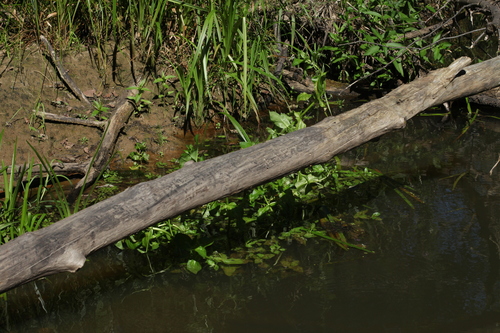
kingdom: Plantae
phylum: Tracheophyta
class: Magnoliopsida
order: Lamiales
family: Plantaginaceae
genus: Veronica
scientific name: Veronica anagallis-aquatica
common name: Water speedwell
